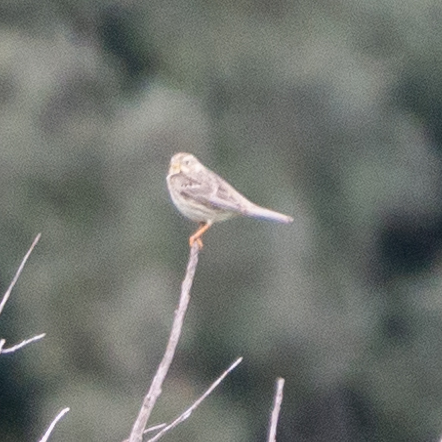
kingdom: Animalia
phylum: Chordata
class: Aves
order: Passeriformes
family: Emberizidae
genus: Emberiza
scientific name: Emberiza calandra
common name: Corn bunting
